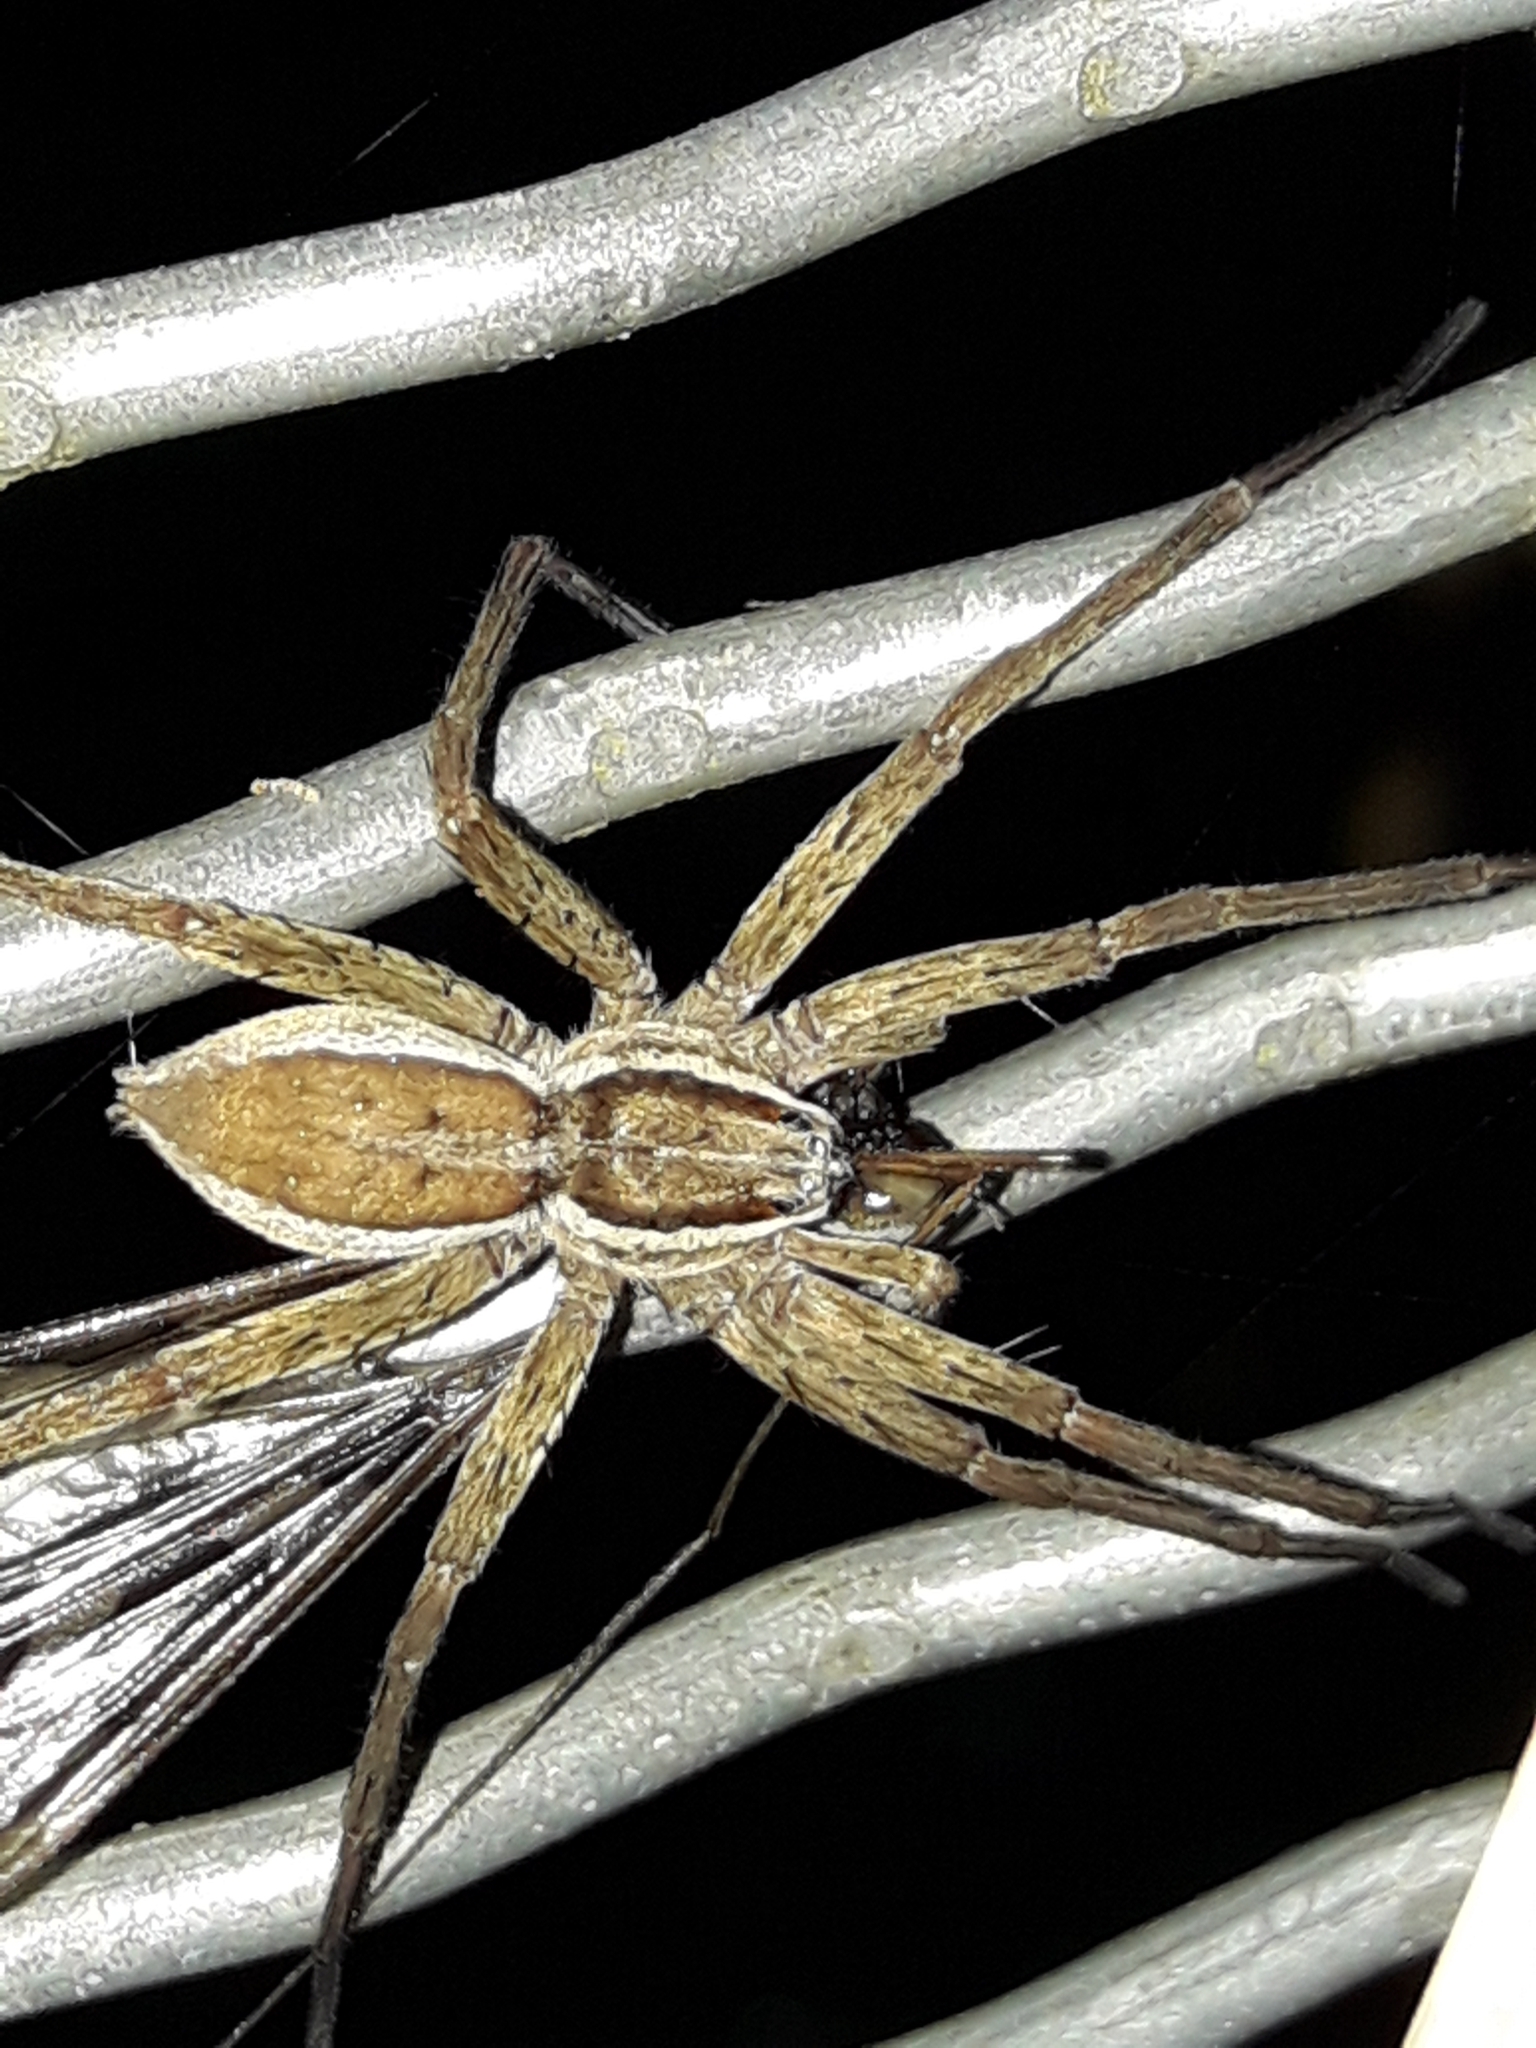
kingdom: Animalia
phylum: Arthropoda
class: Arachnida
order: Araneae
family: Pisauridae
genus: Dolomedes
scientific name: Dolomedes minor
